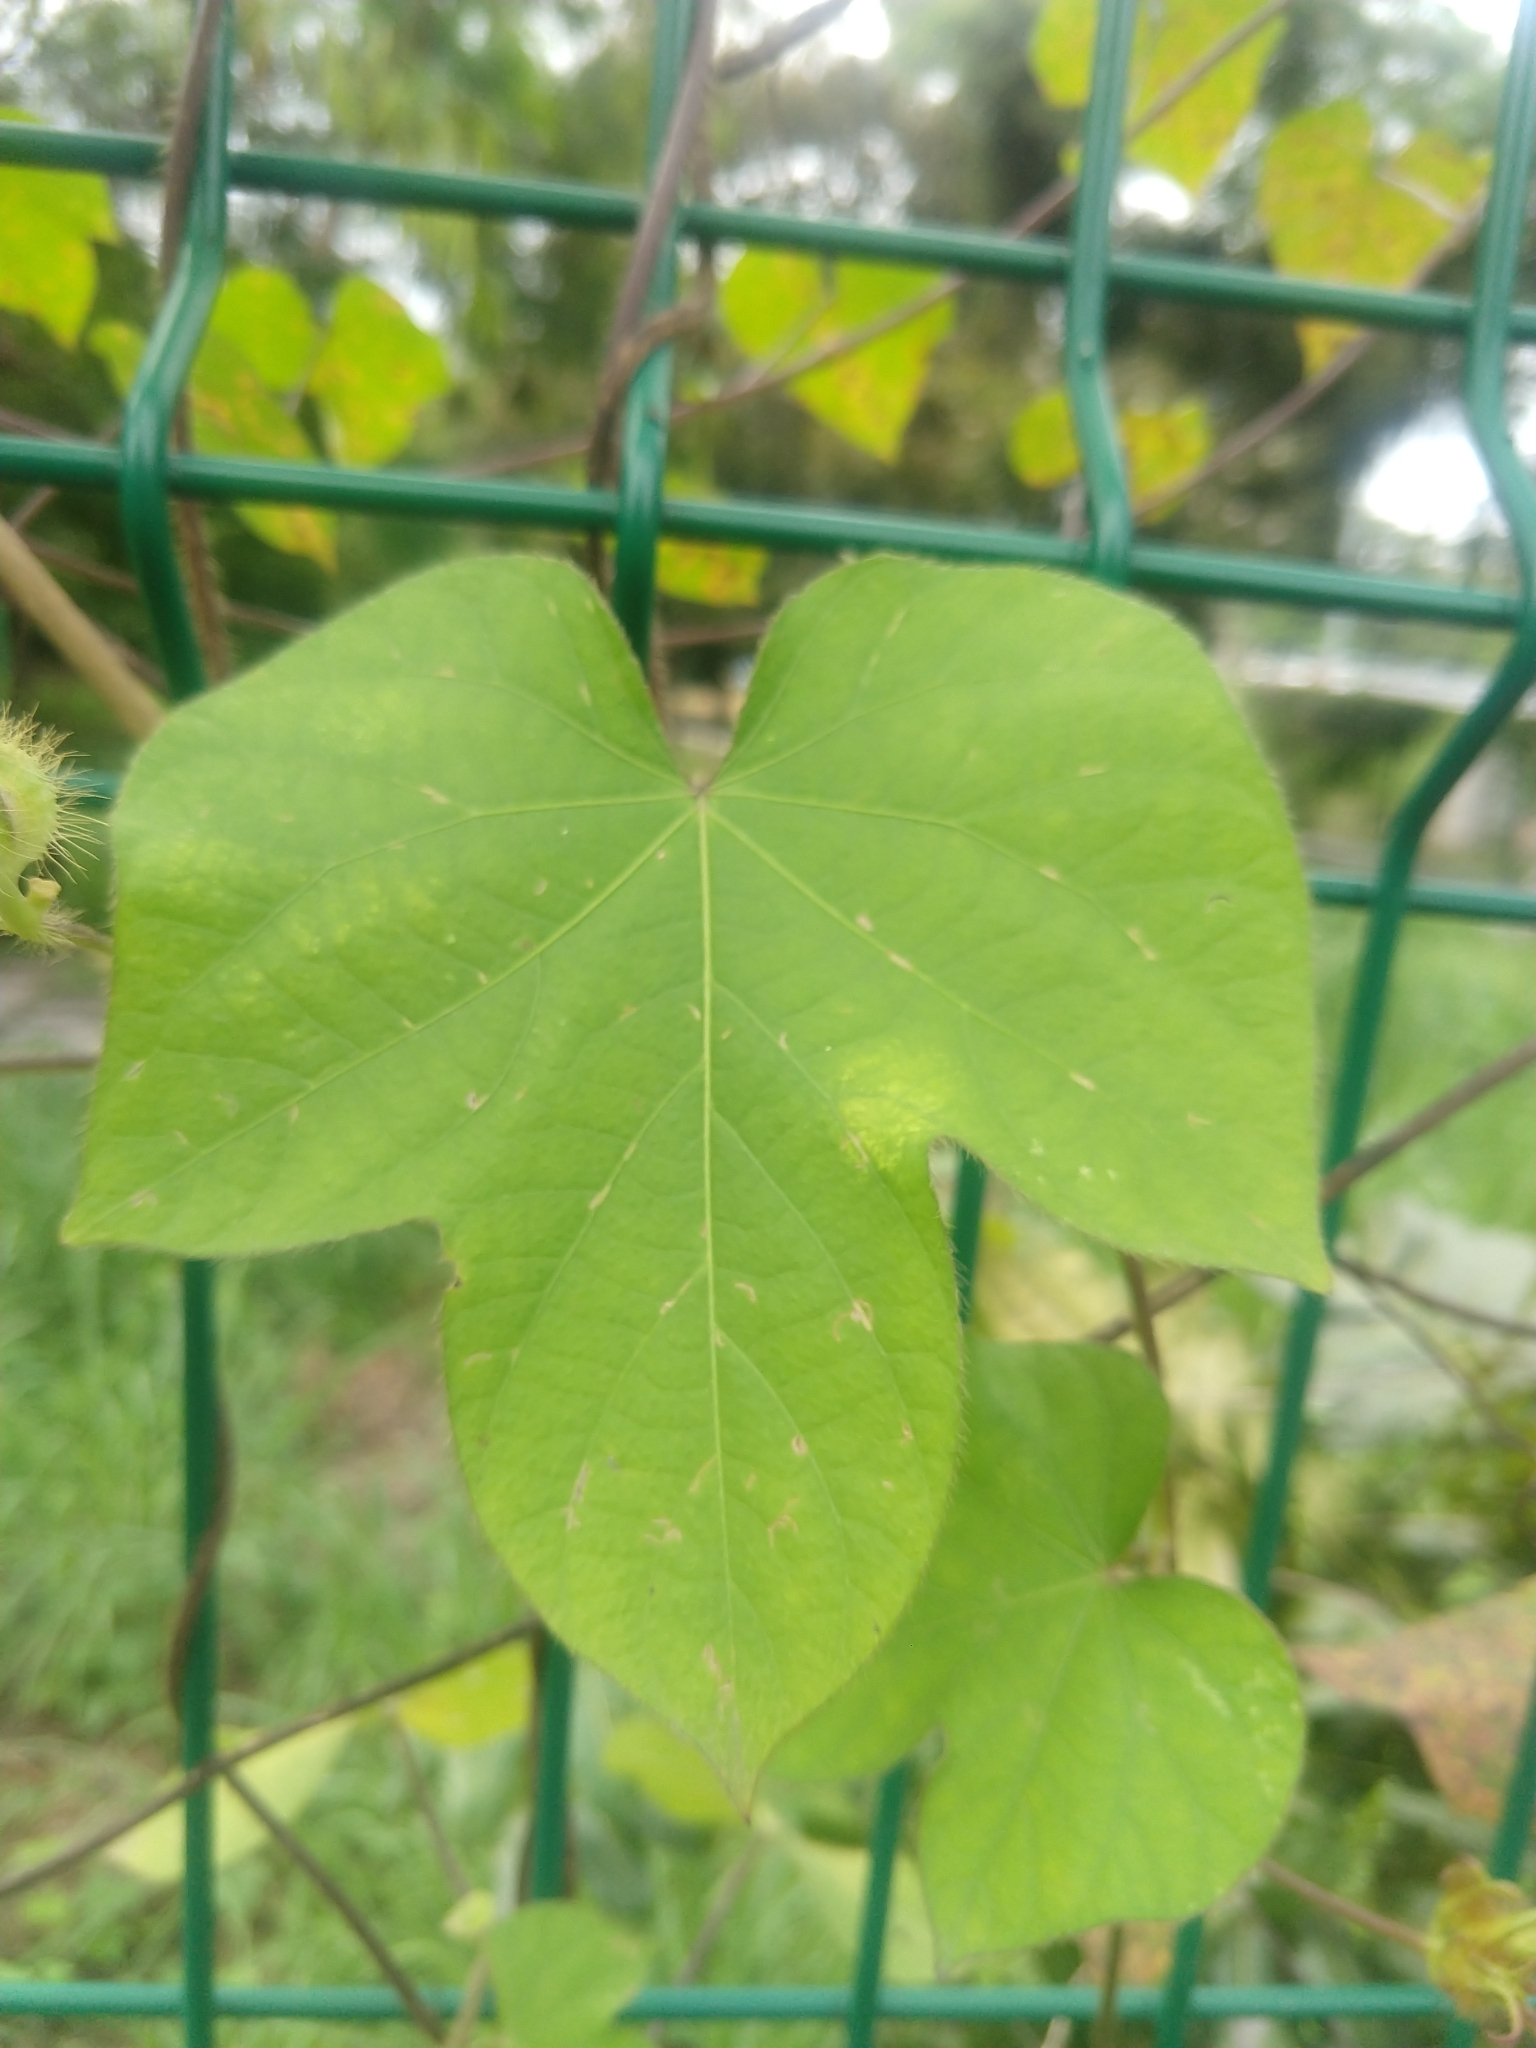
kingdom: Plantae
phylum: Tracheophyta
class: Magnoliopsida
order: Solanales
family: Convolvulaceae
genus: Ipomoea
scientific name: Ipomoea hederacea
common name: Ivy-leaved morning-glory
